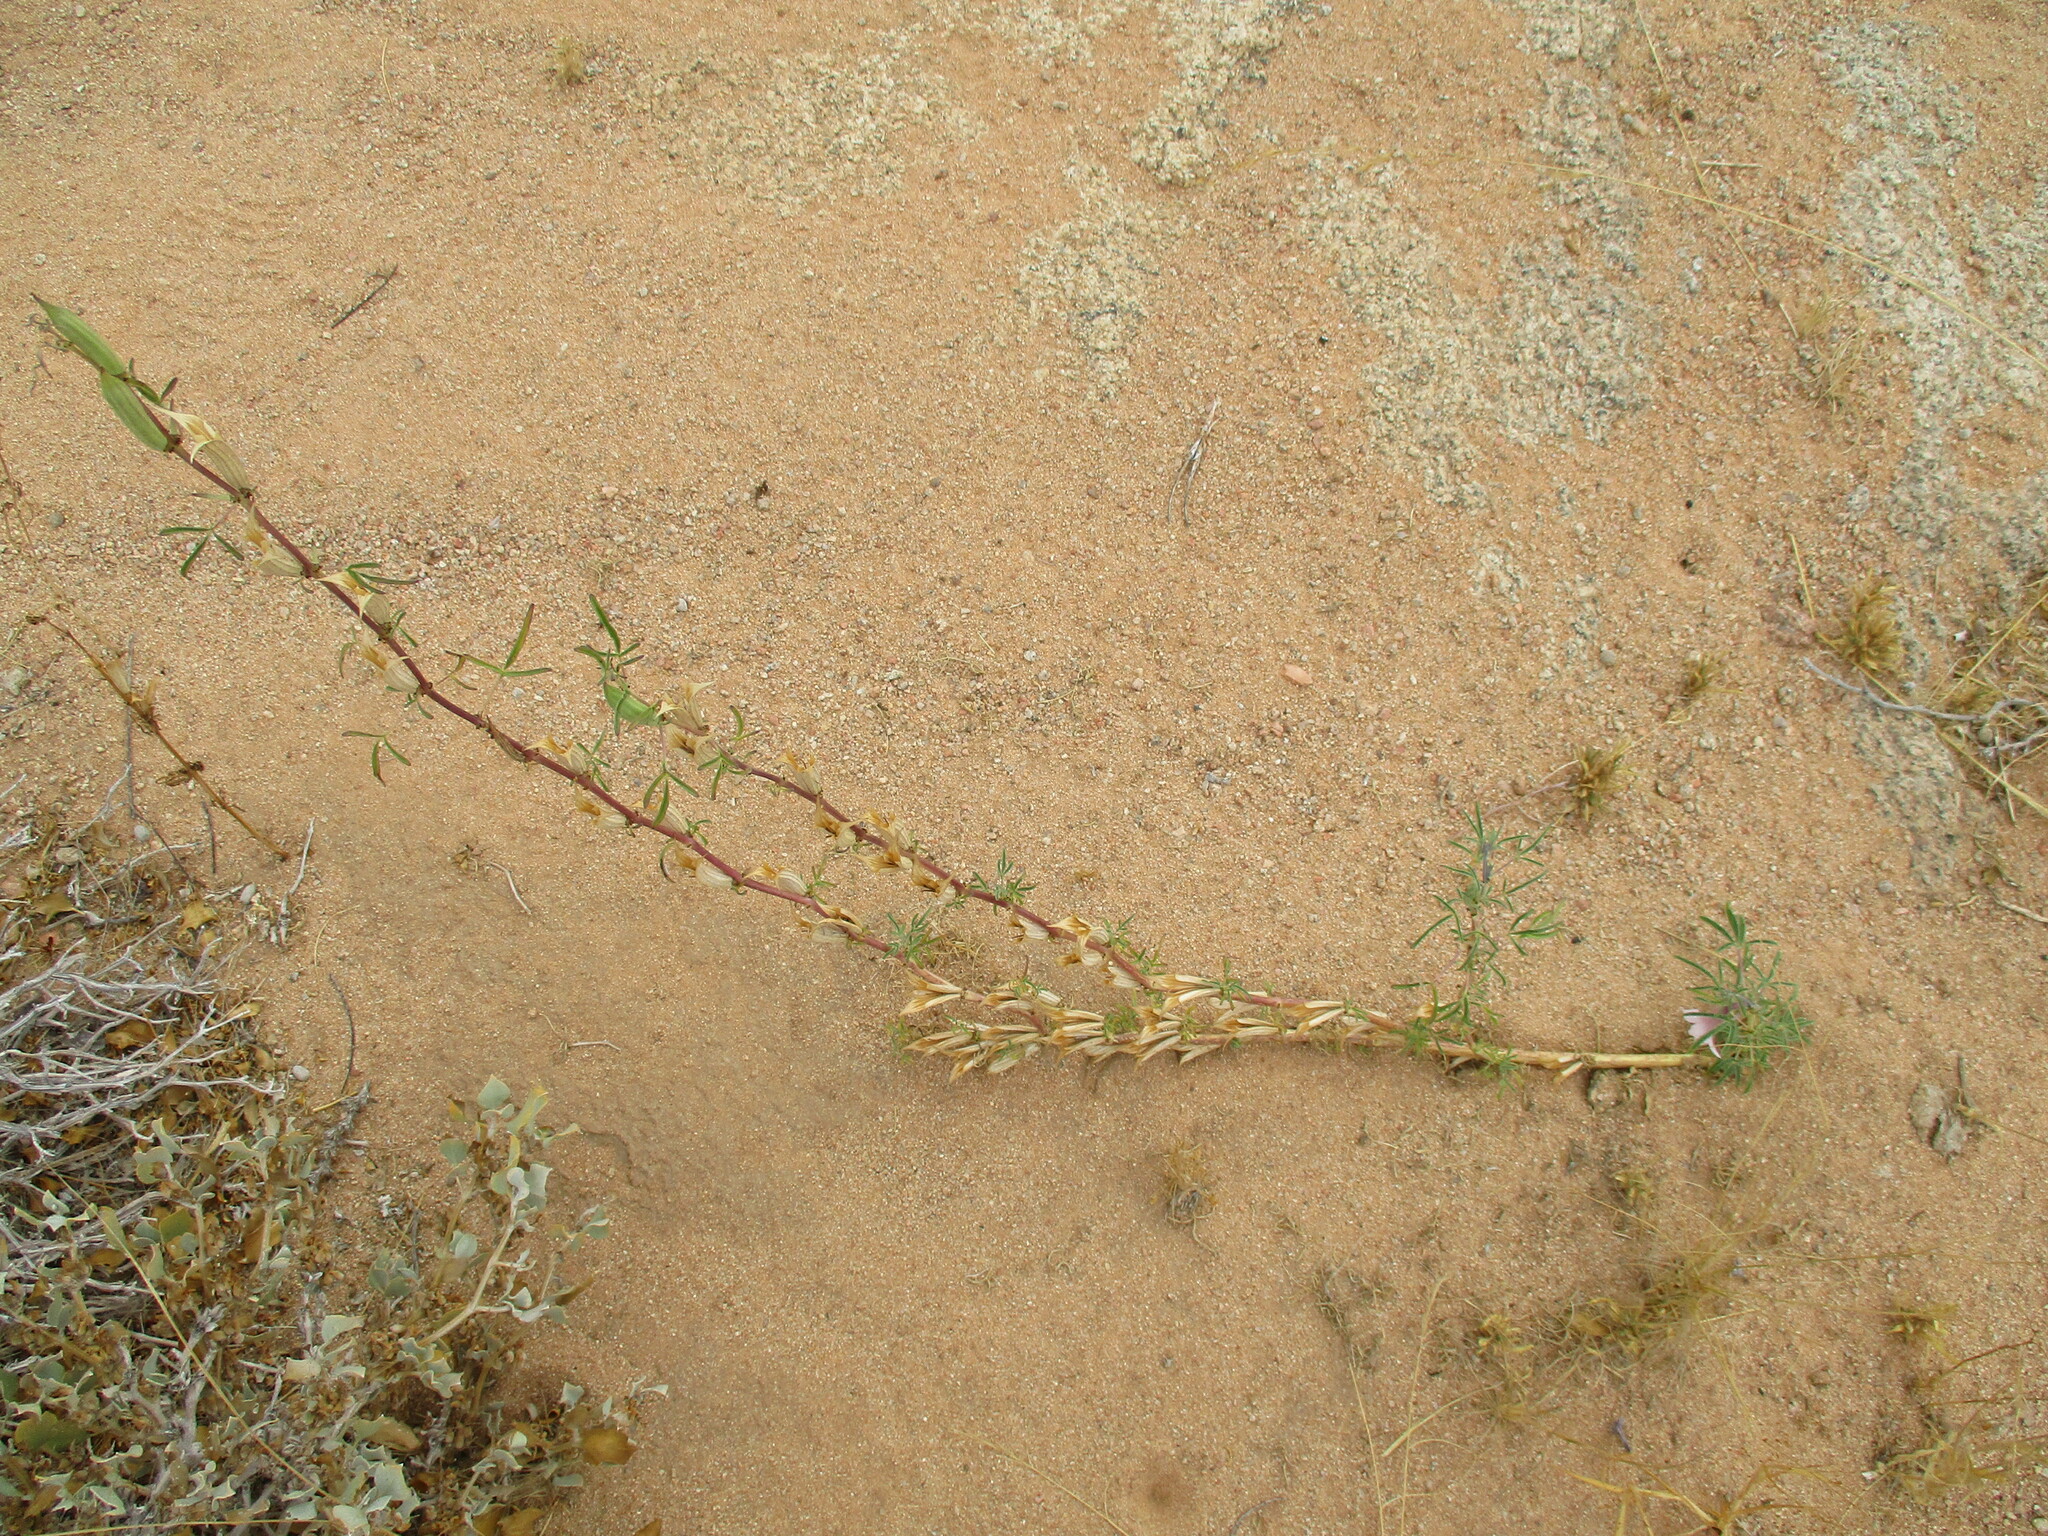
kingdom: Plantae
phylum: Tracheophyta
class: Magnoliopsida
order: Lamiales
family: Pedaliaceae
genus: Sesamum
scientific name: Sesamum triphyllum
